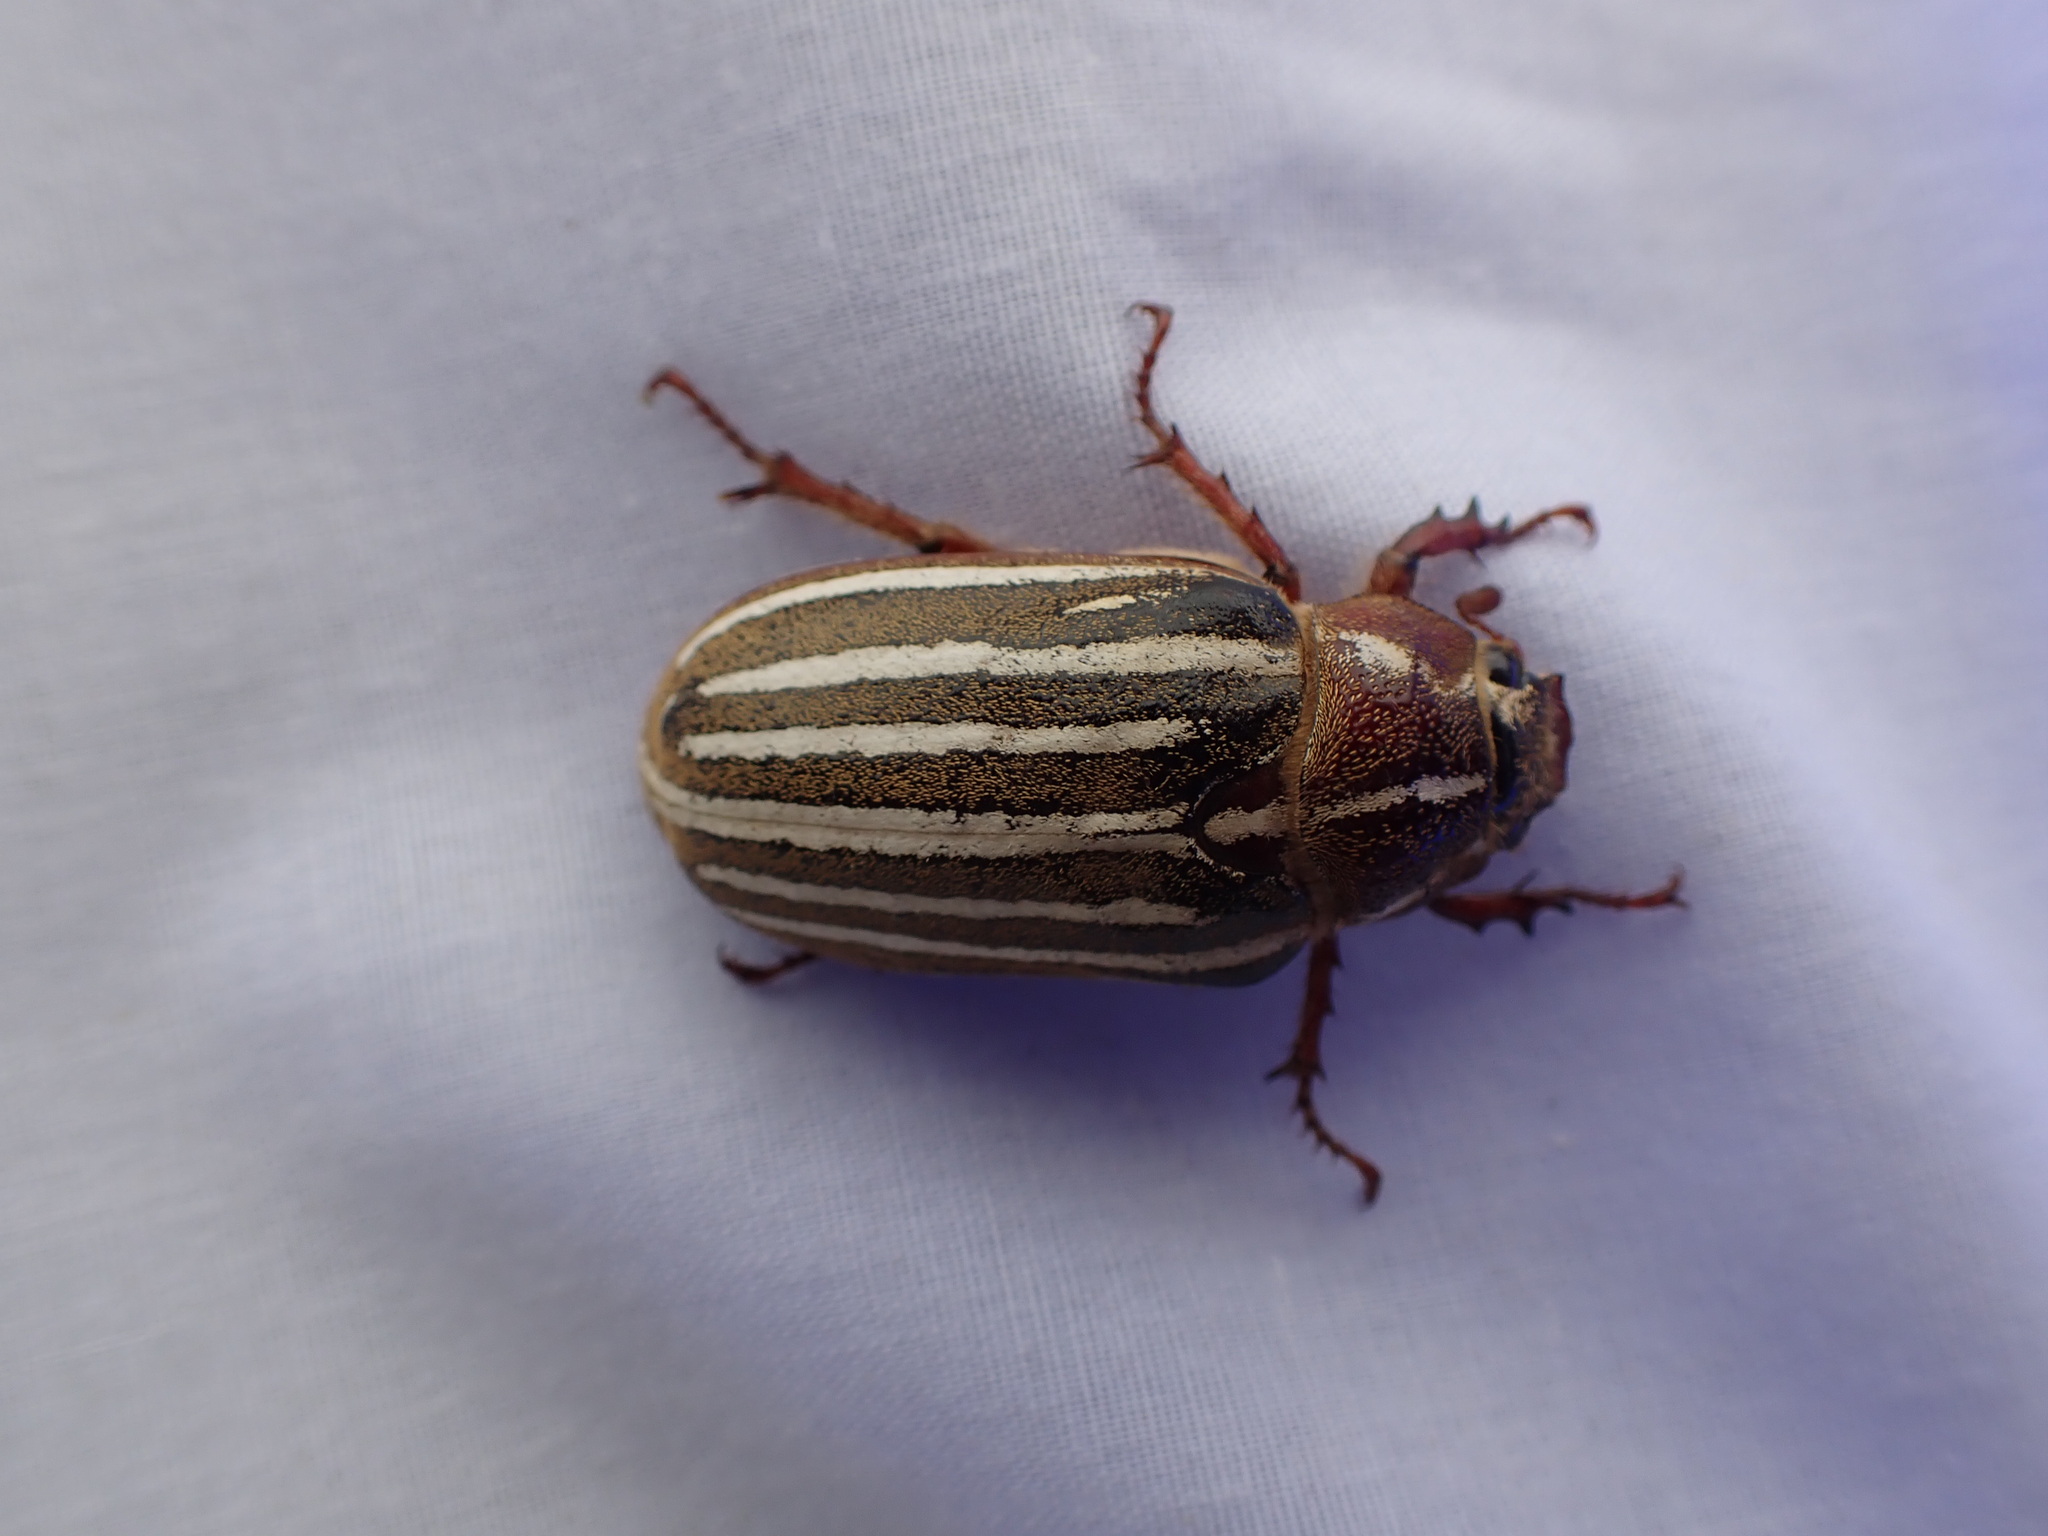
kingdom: Animalia
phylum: Arthropoda
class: Insecta
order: Coleoptera
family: Scarabaeidae
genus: Polyphylla
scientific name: Polyphylla crinita
